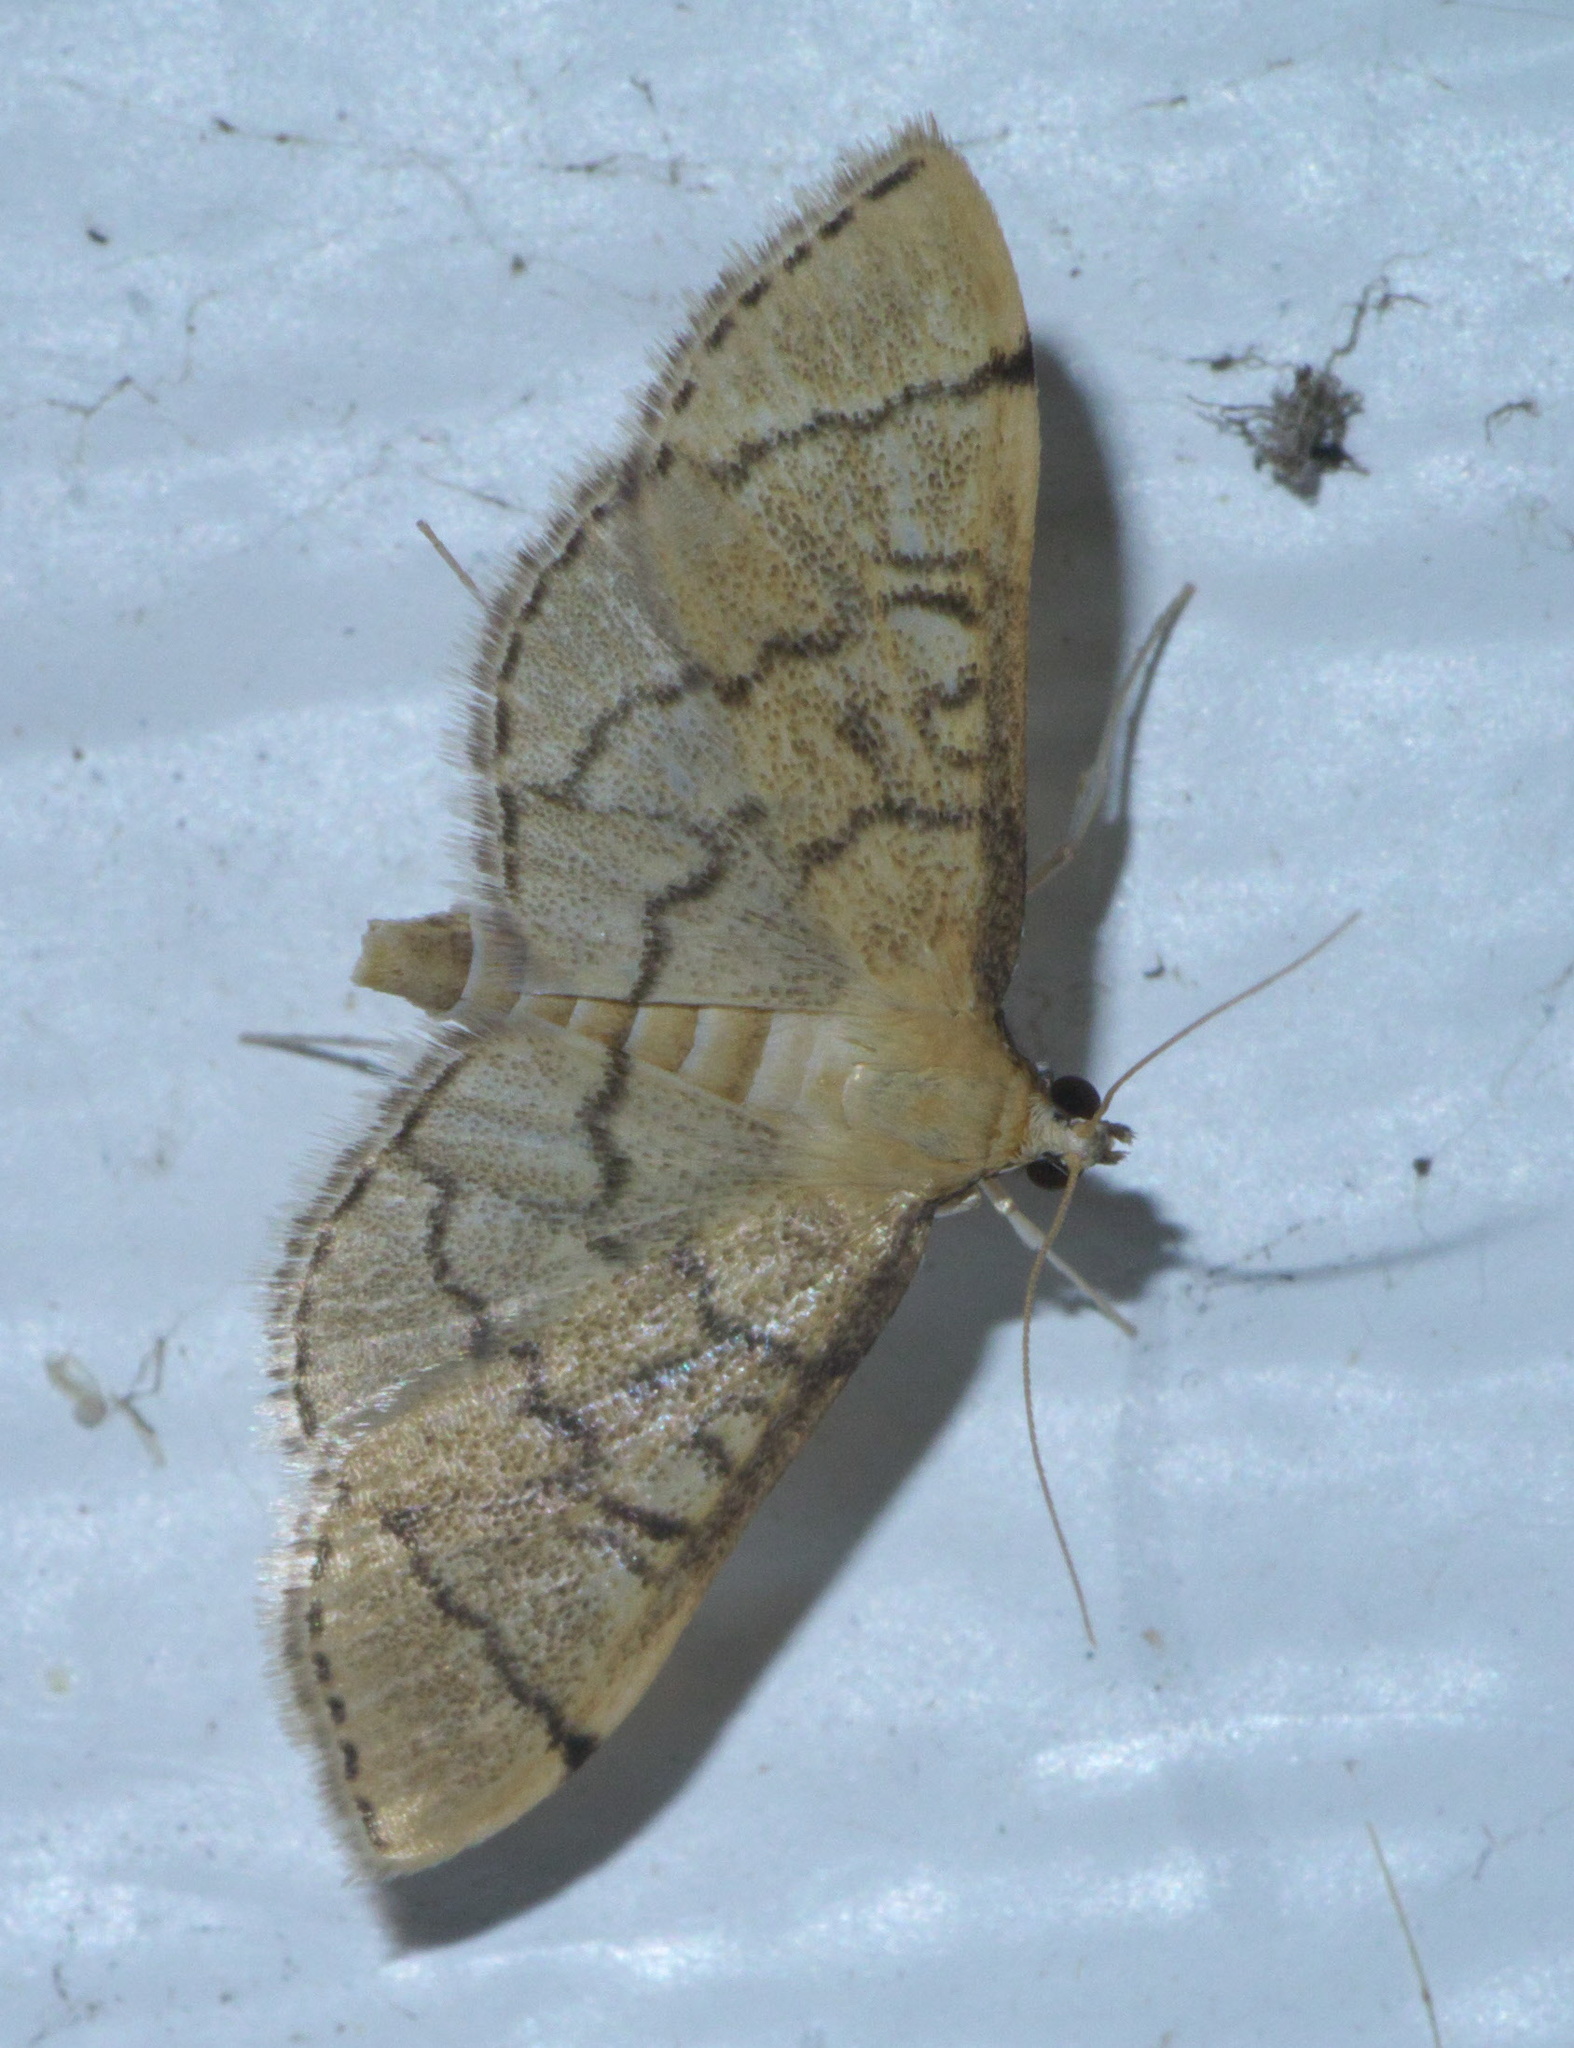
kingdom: Animalia
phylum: Arthropoda
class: Insecta
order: Lepidoptera
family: Crambidae
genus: Lamprosema
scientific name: Lamprosema Blepharomastix ranalis
